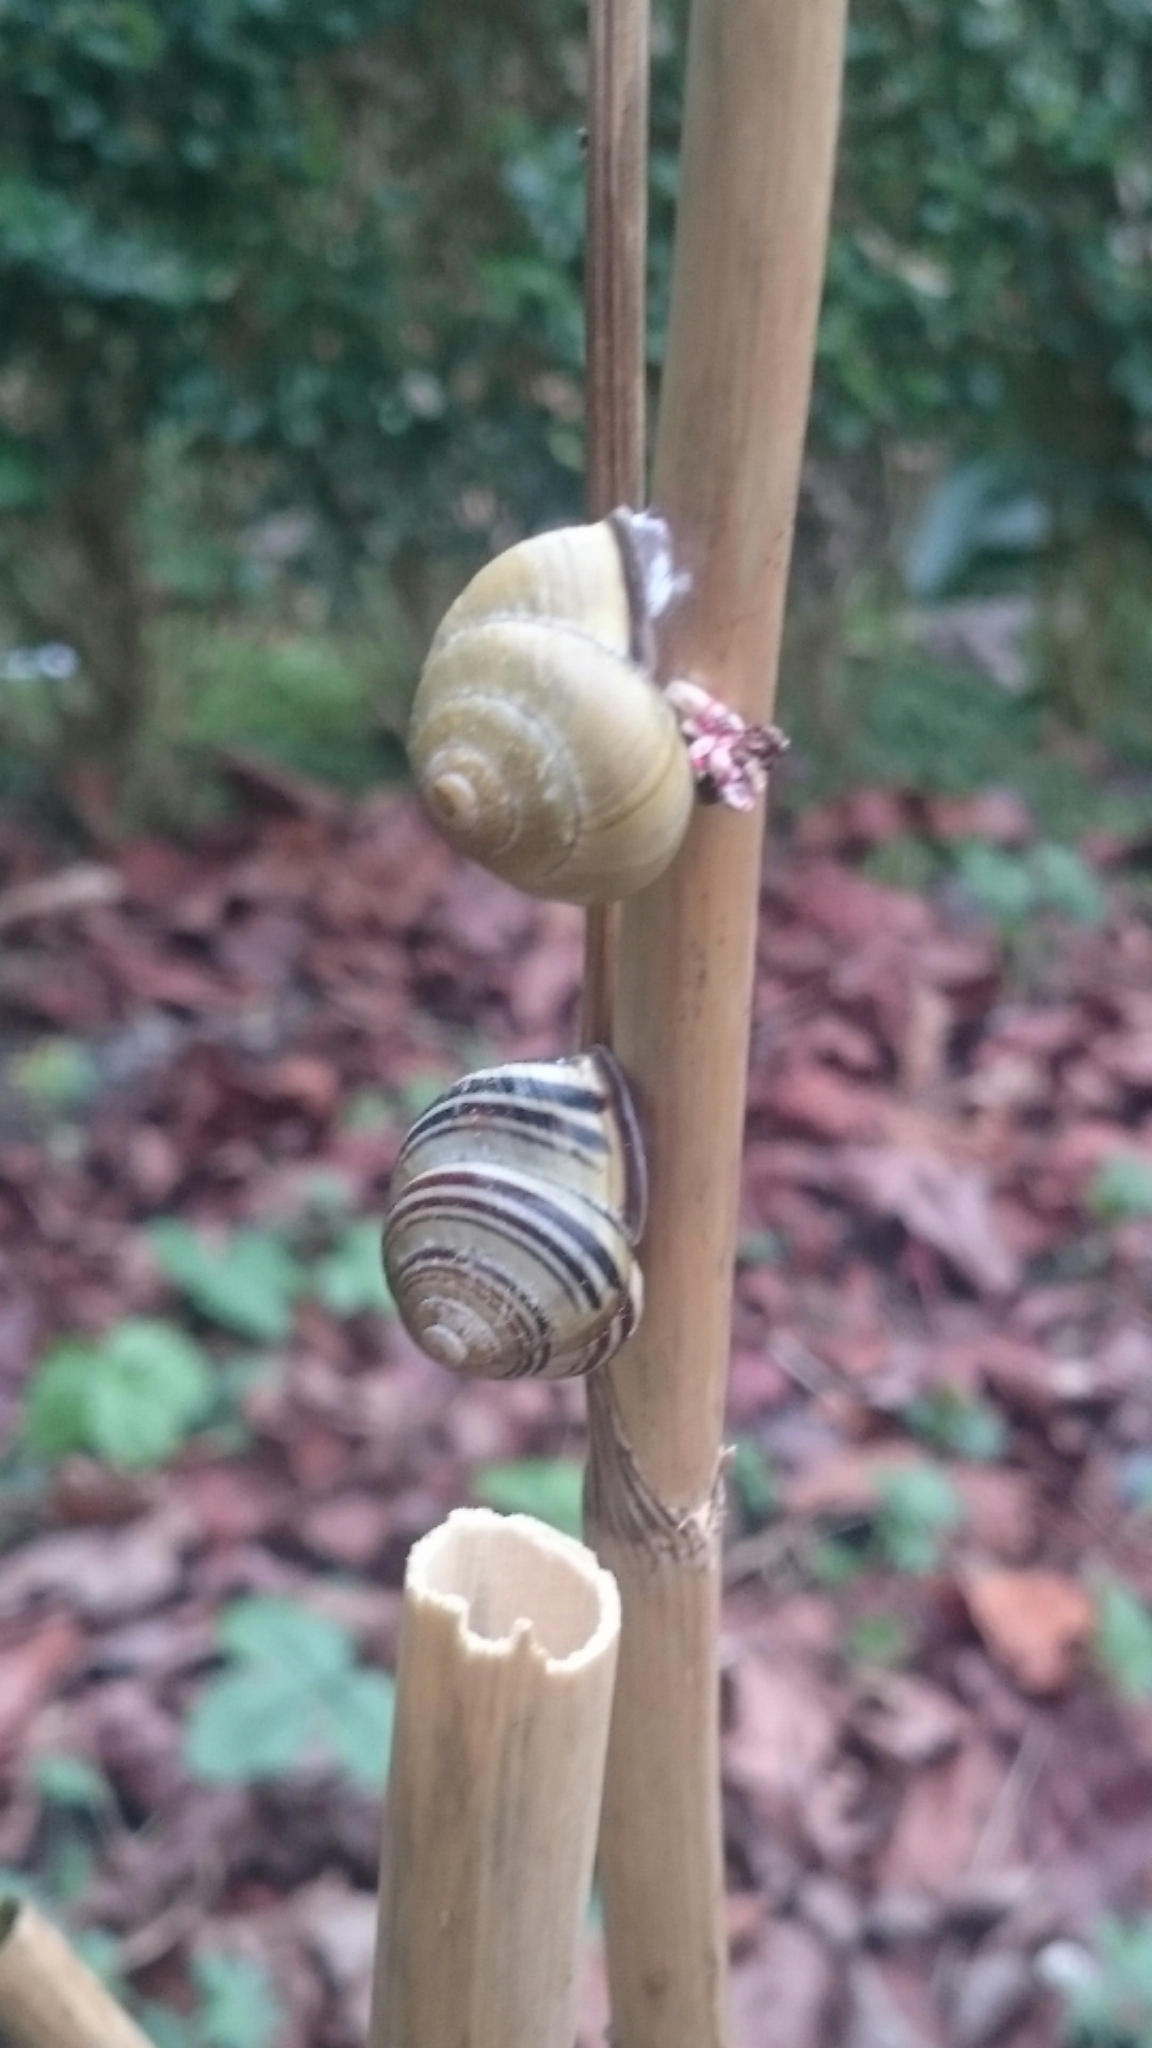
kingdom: Animalia
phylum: Mollusca
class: Gastropoda
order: Stylommatophora
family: Helicidae
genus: Cepaea
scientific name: Cepaea nemoralis
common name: Grovesnail
